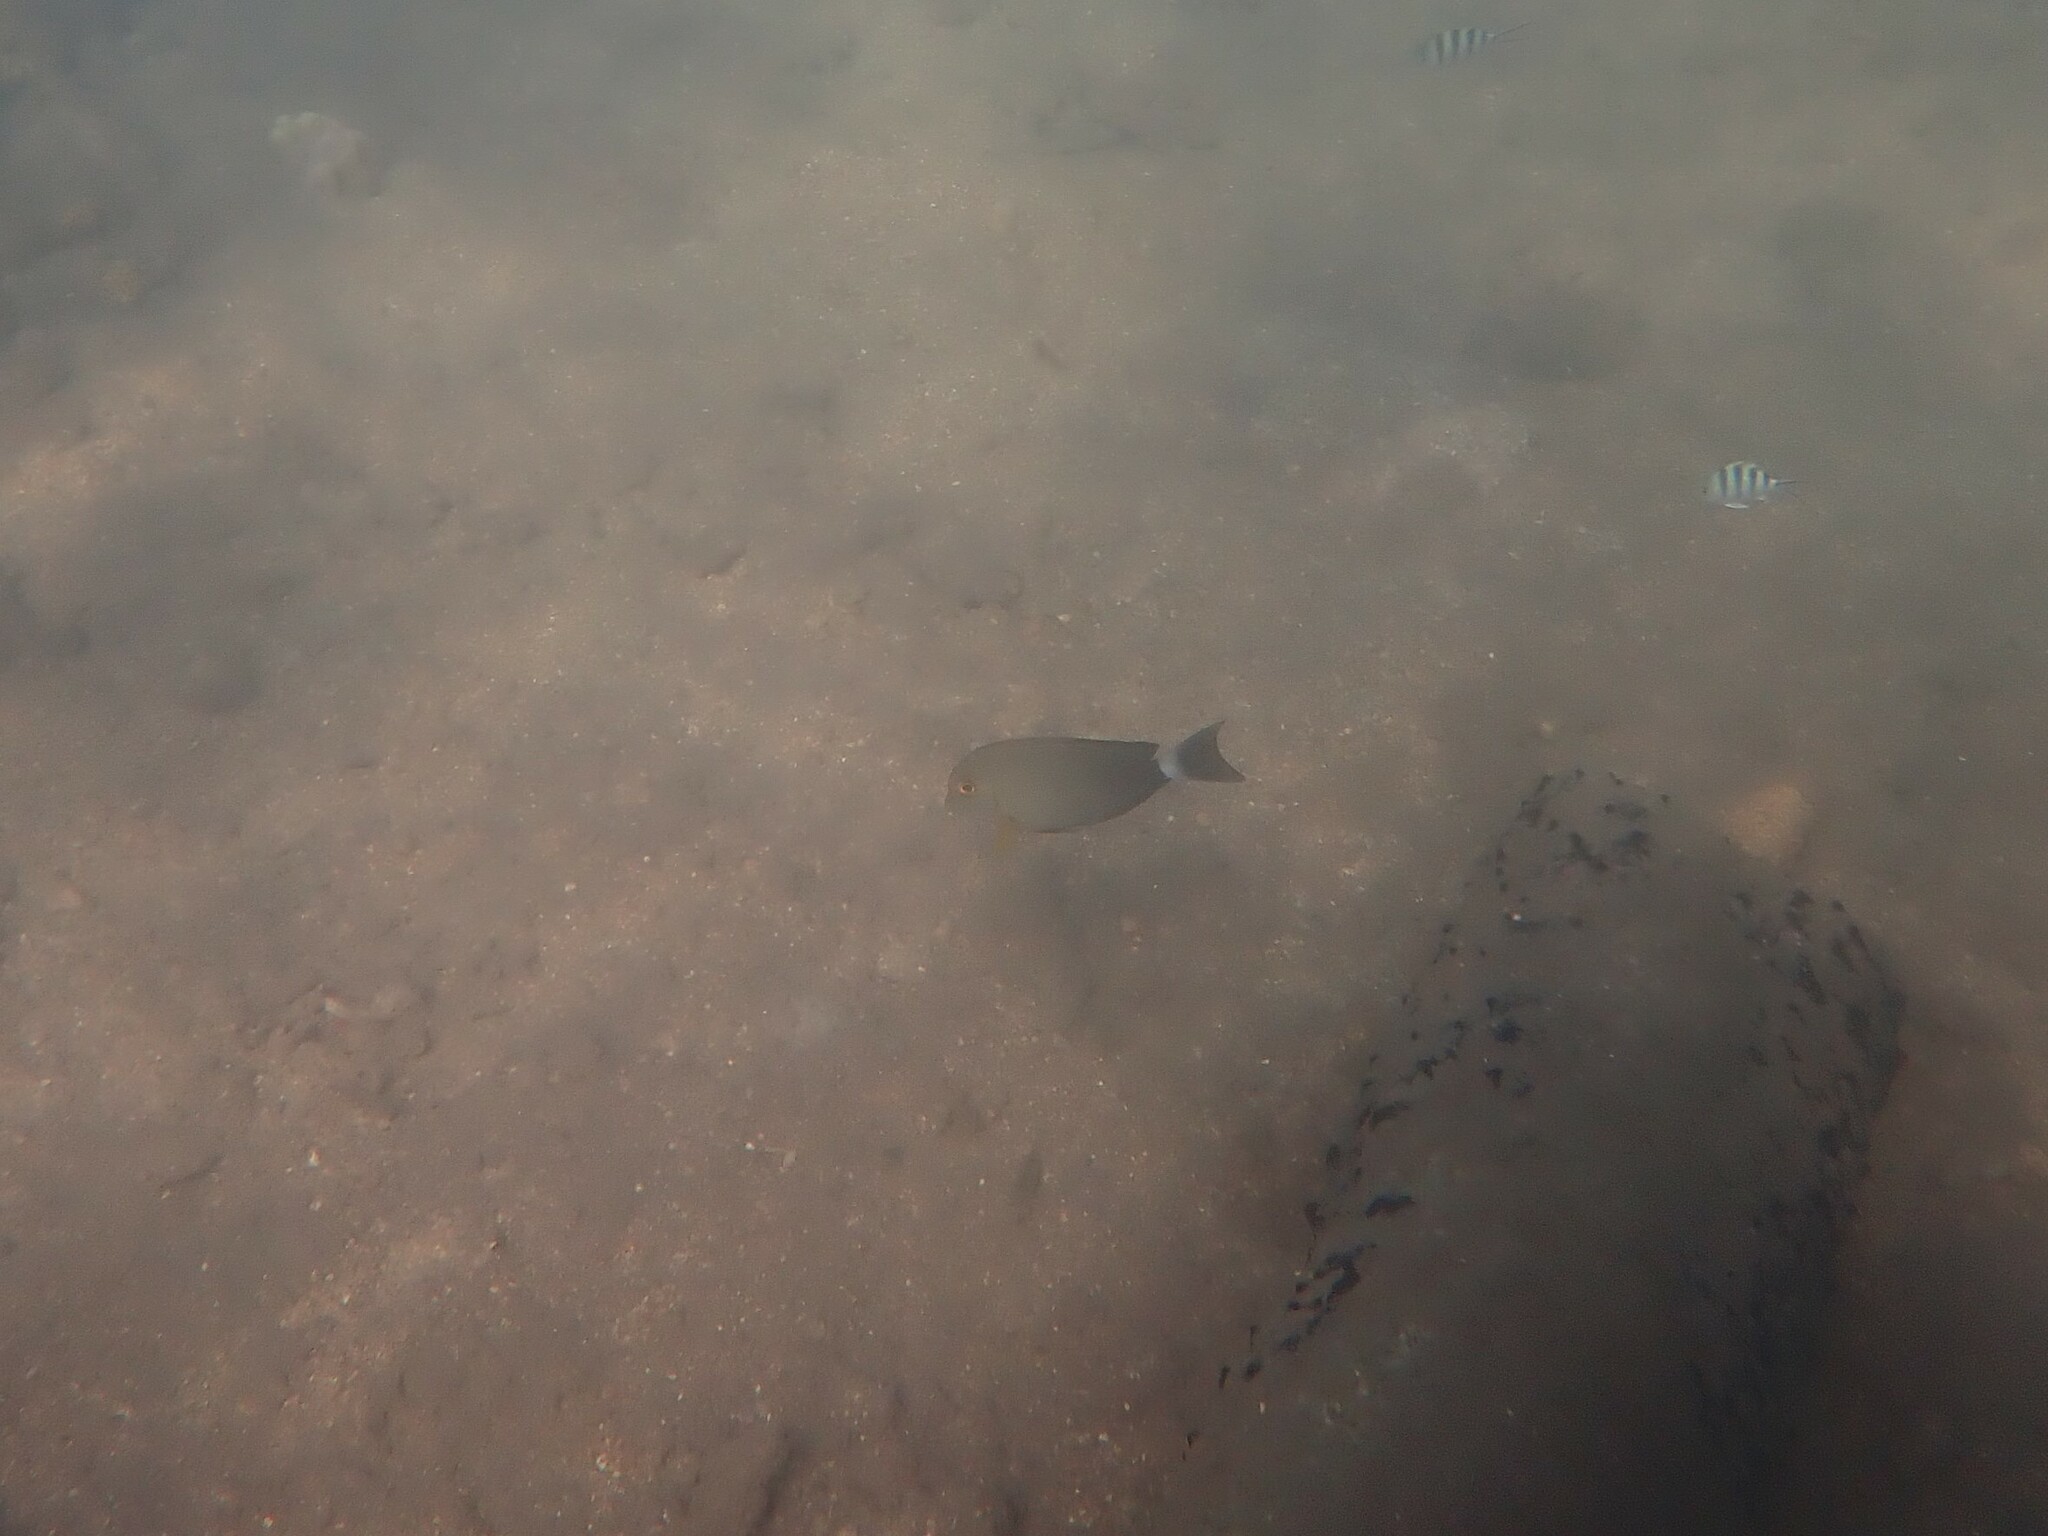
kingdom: Animalia
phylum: Chordata
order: Perciformes
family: Acanthuridae
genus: Acanthurus
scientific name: Acanthurus xanthopterus
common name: Cuvier's surgeonfish
